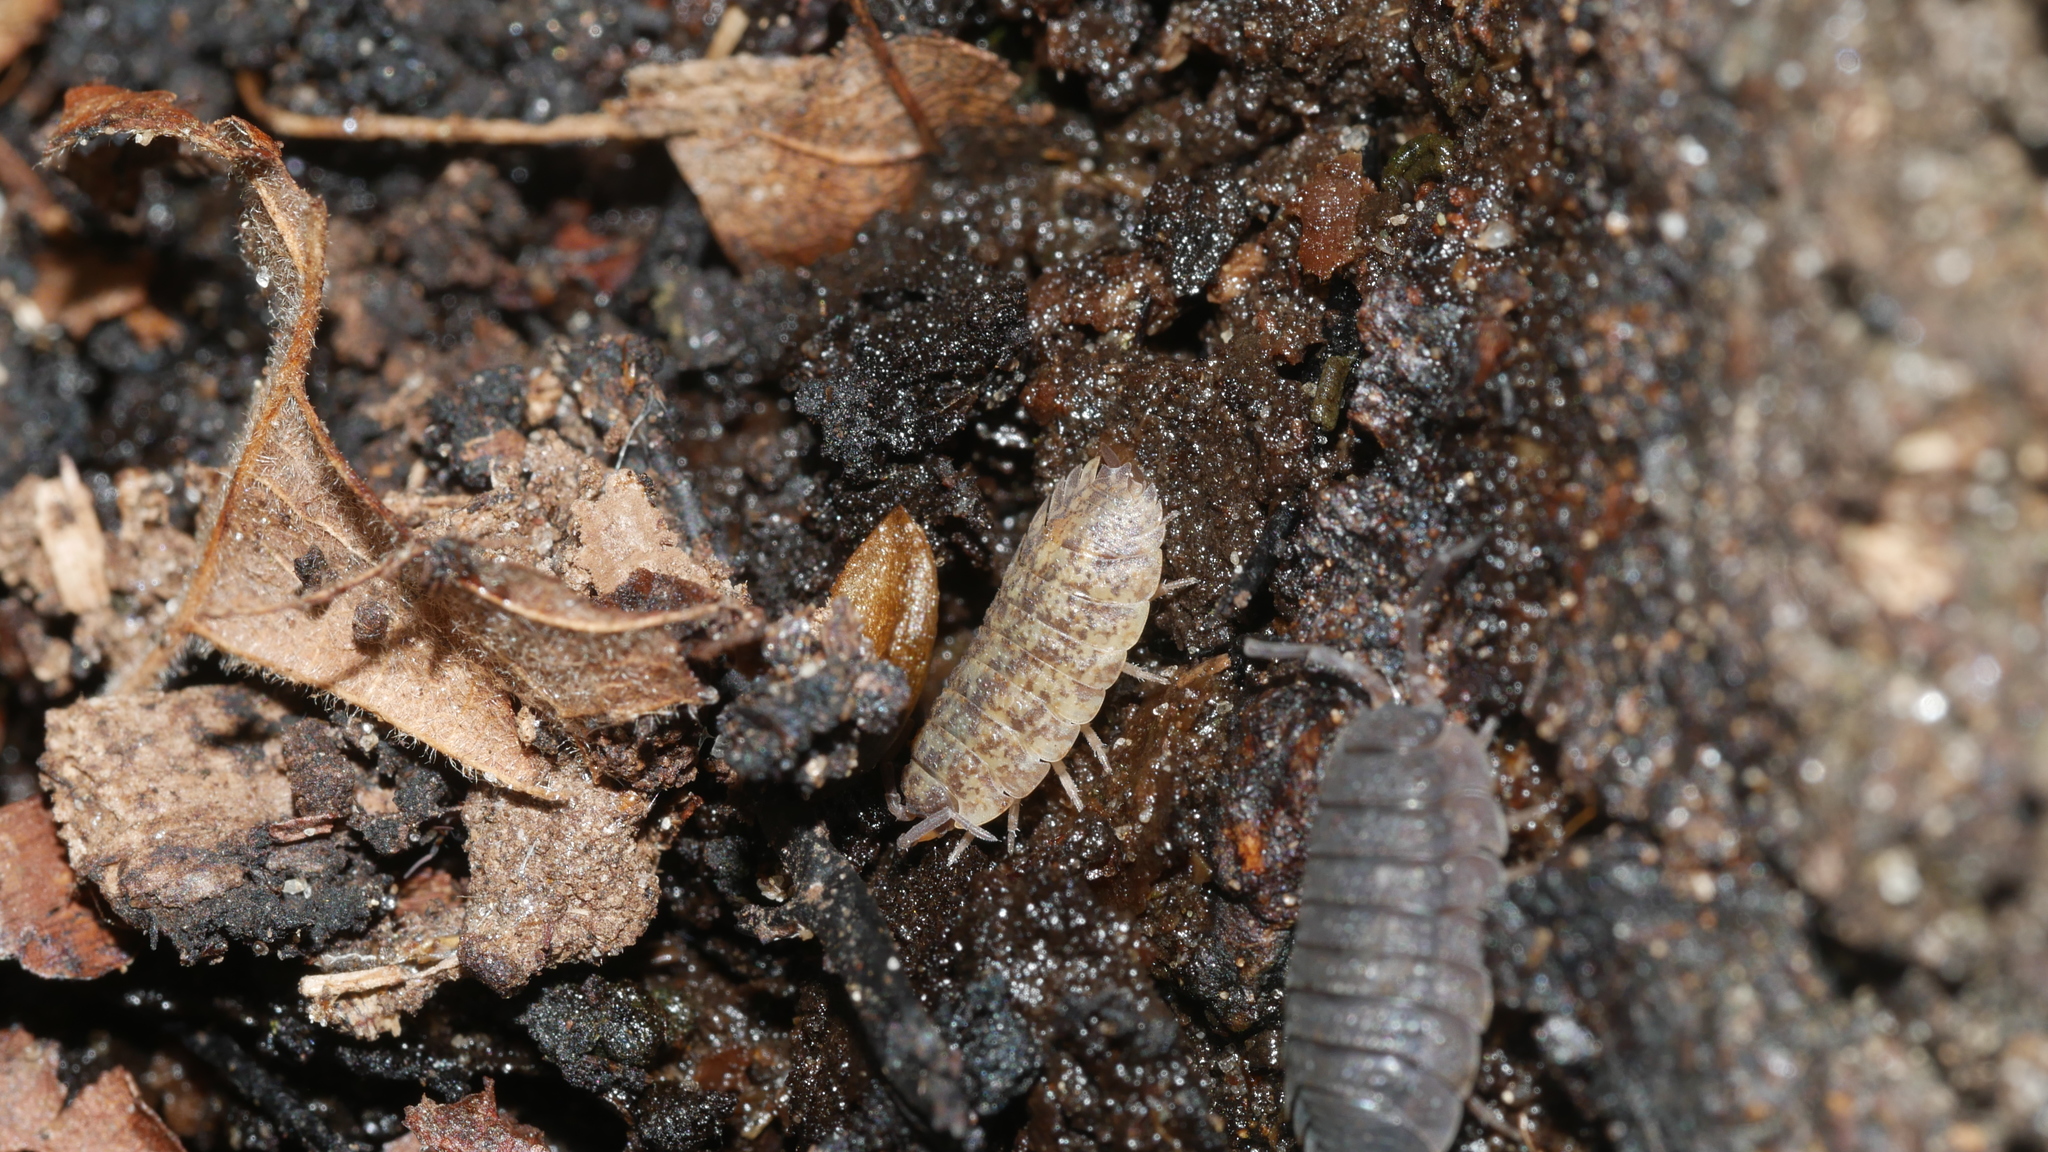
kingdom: Animalia
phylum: Arthropoda
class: Malacostraca
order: Isopoda
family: Porcellionidae
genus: Porcellio
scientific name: Porcellio scaber
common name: Common rough woodlouse
